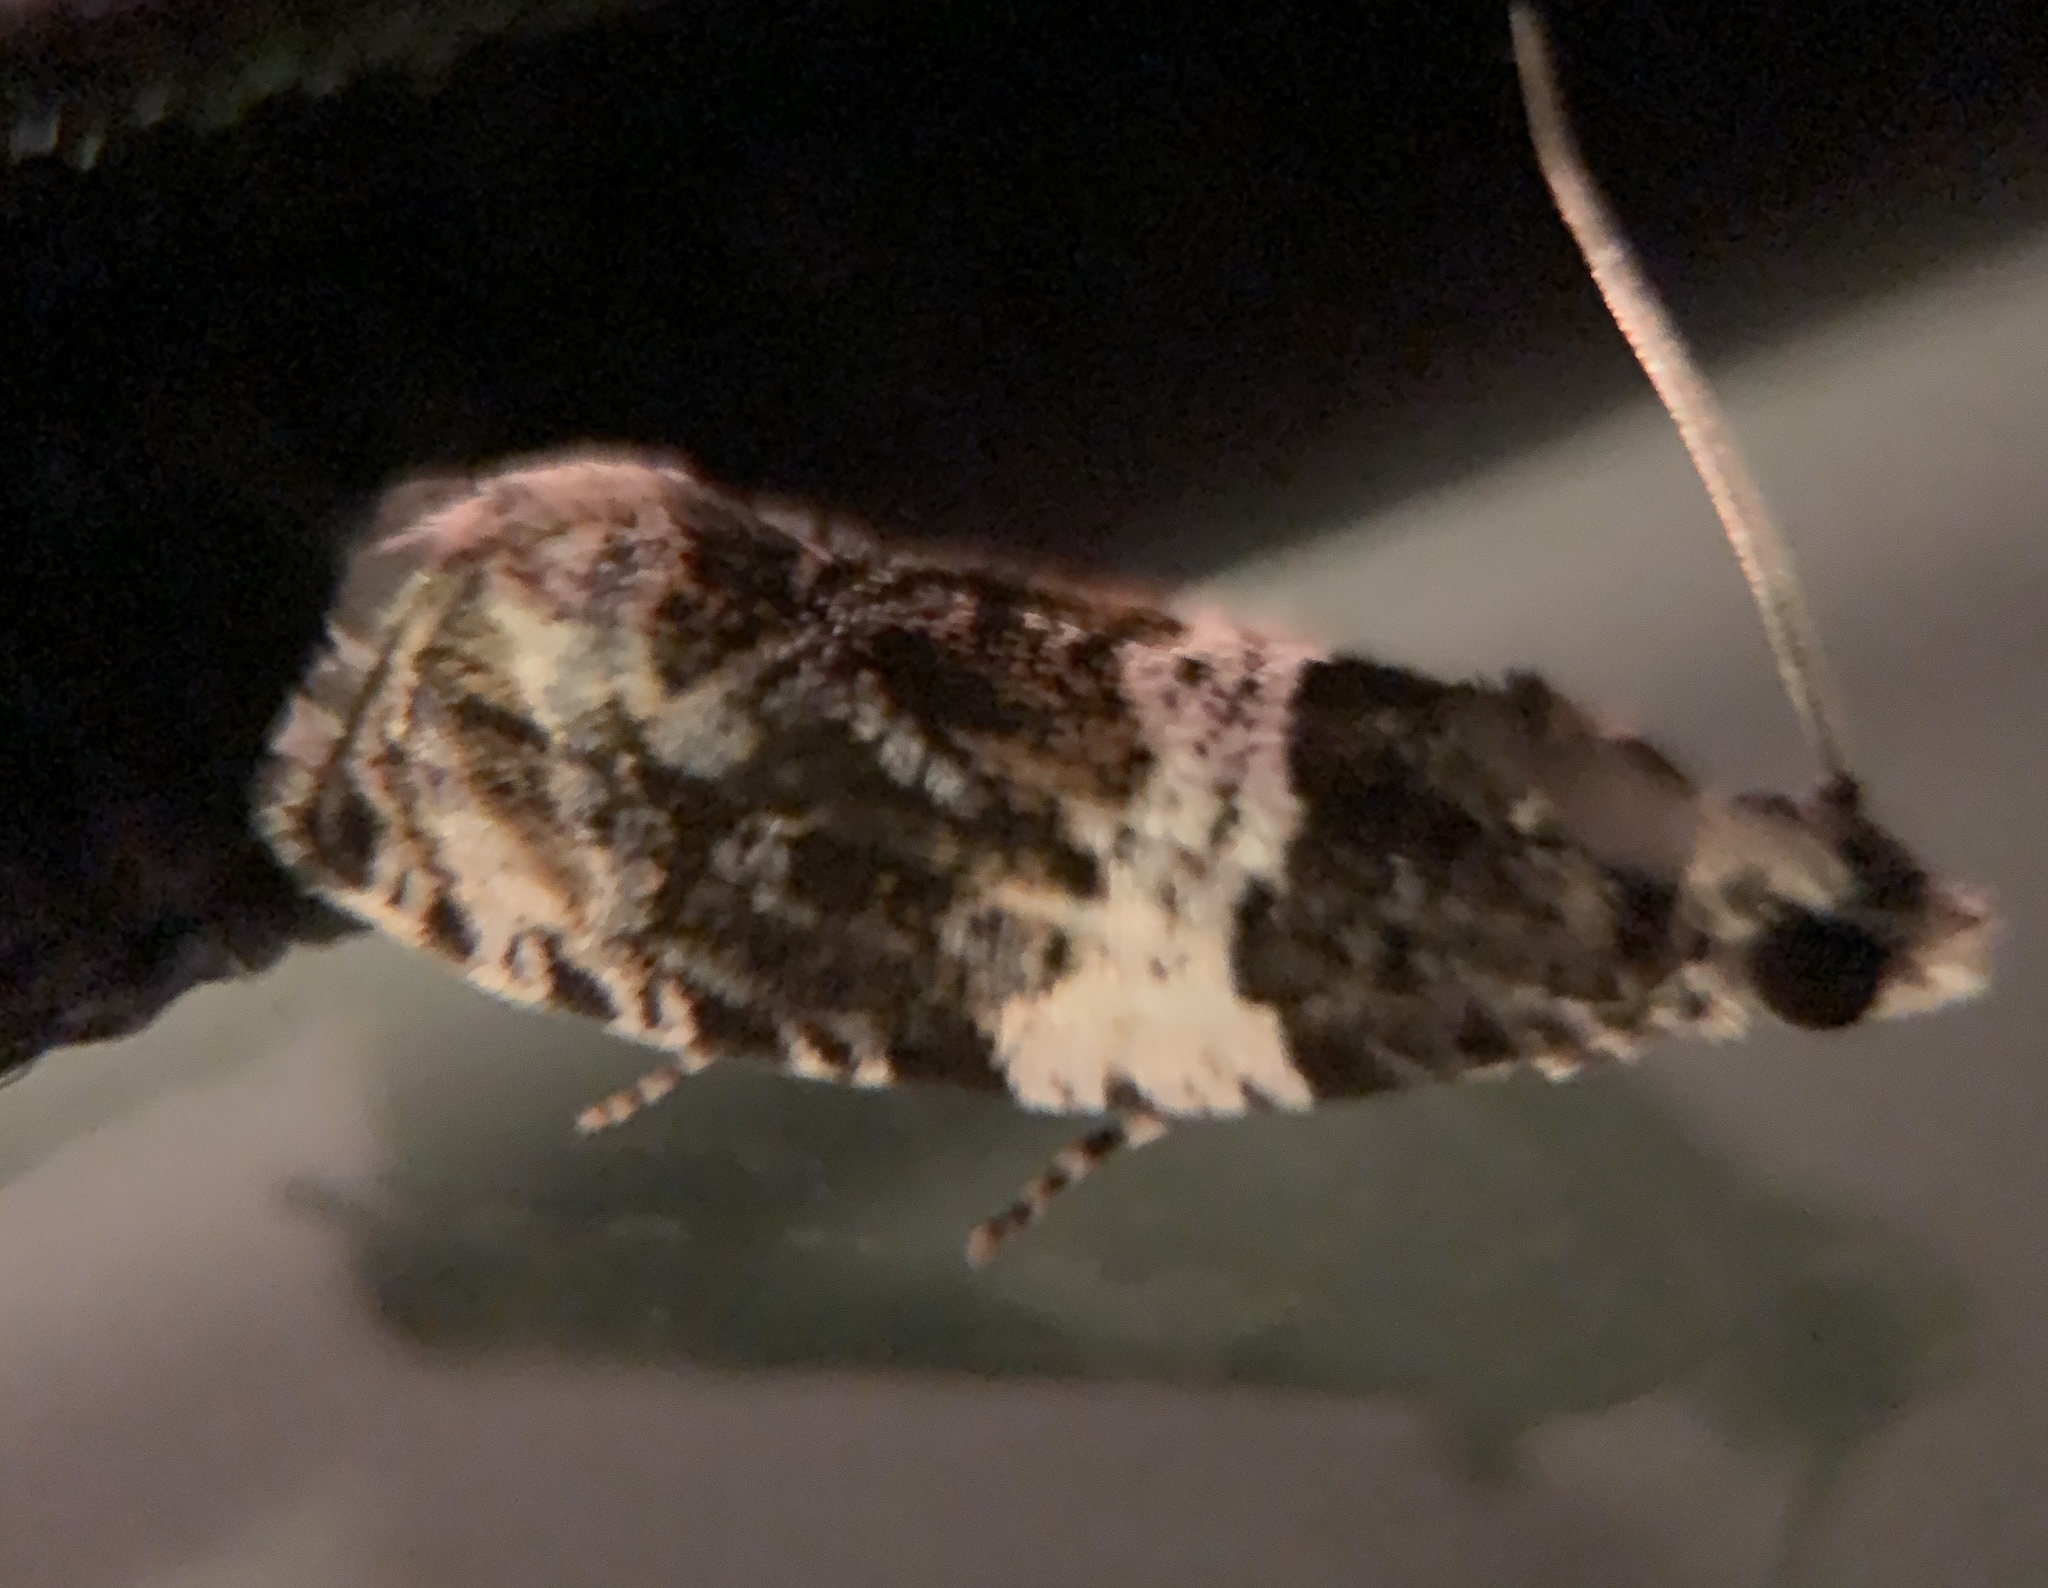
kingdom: Animalia
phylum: Arthropoda
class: Insecta
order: Lepidoptera
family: Tortricidae
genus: Olethreutes
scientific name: Olethreutes fasciatana
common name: Banded olethreutes moth
